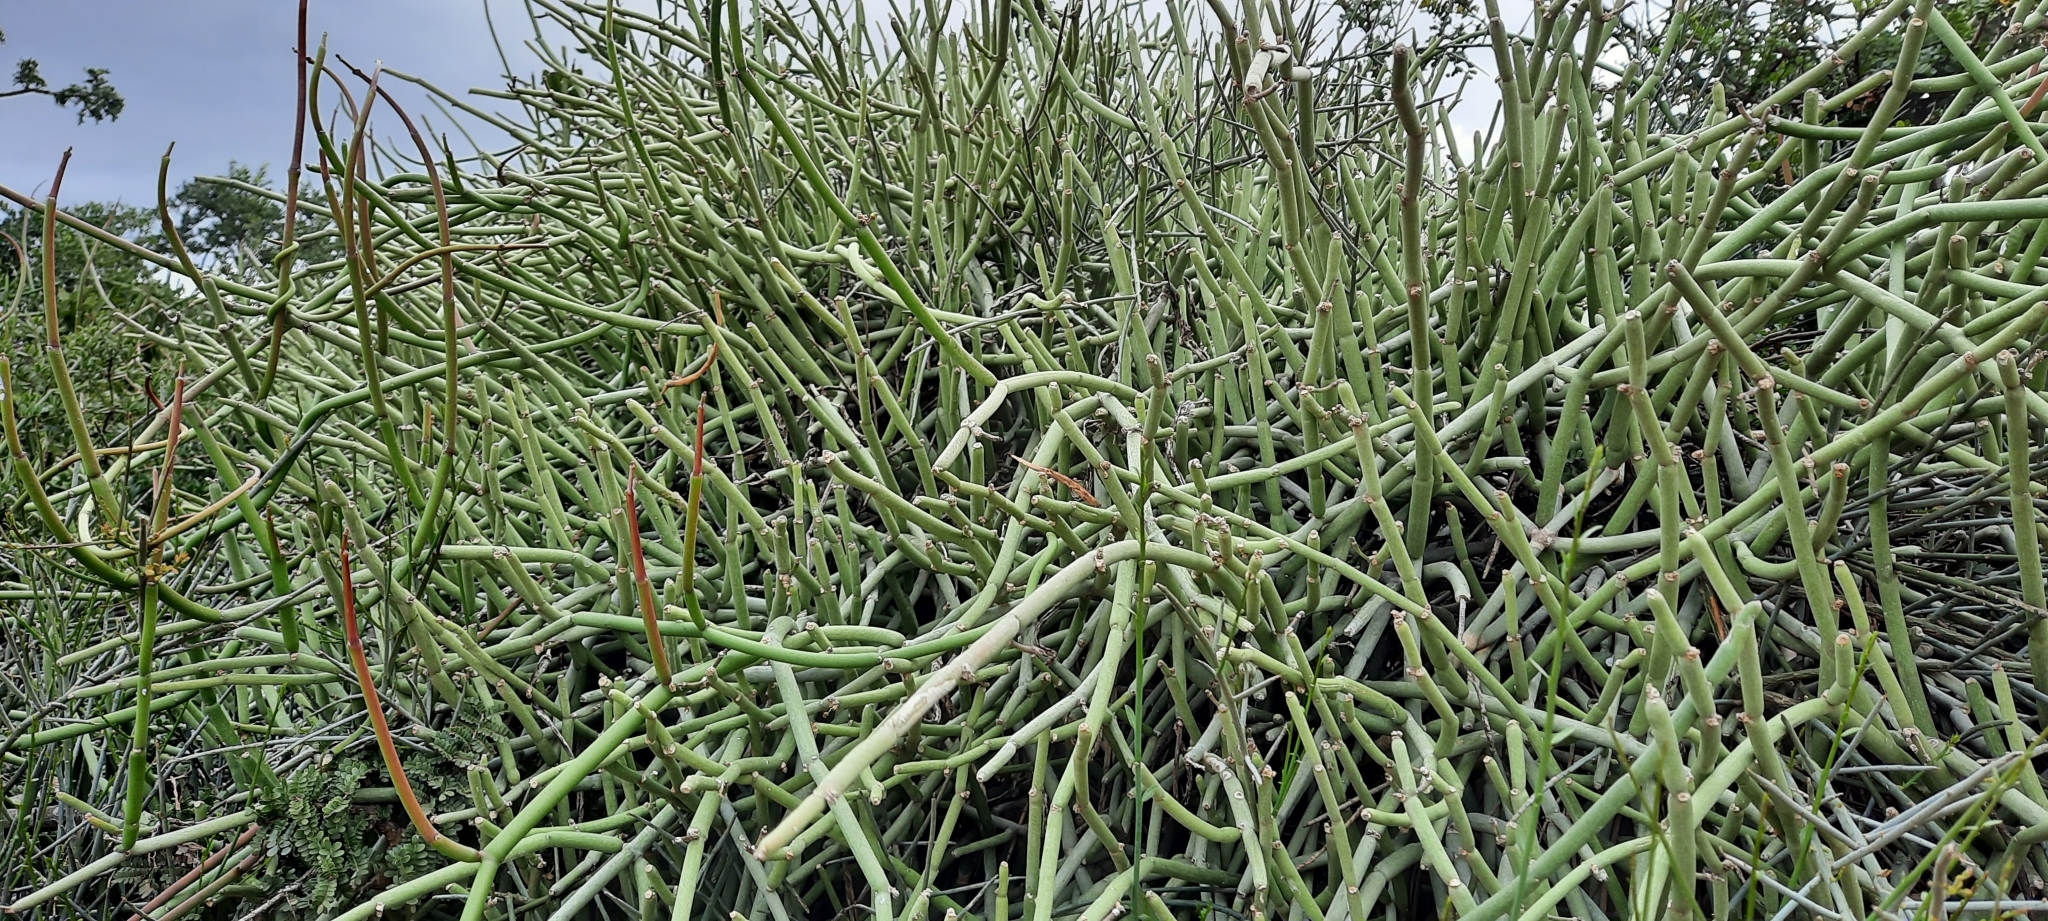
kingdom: Plantae
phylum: Tracheophyta
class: Magnoliopsida
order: Gentianales
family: Apocynaceae
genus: Cynanchum
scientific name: Cynanchum viminale
